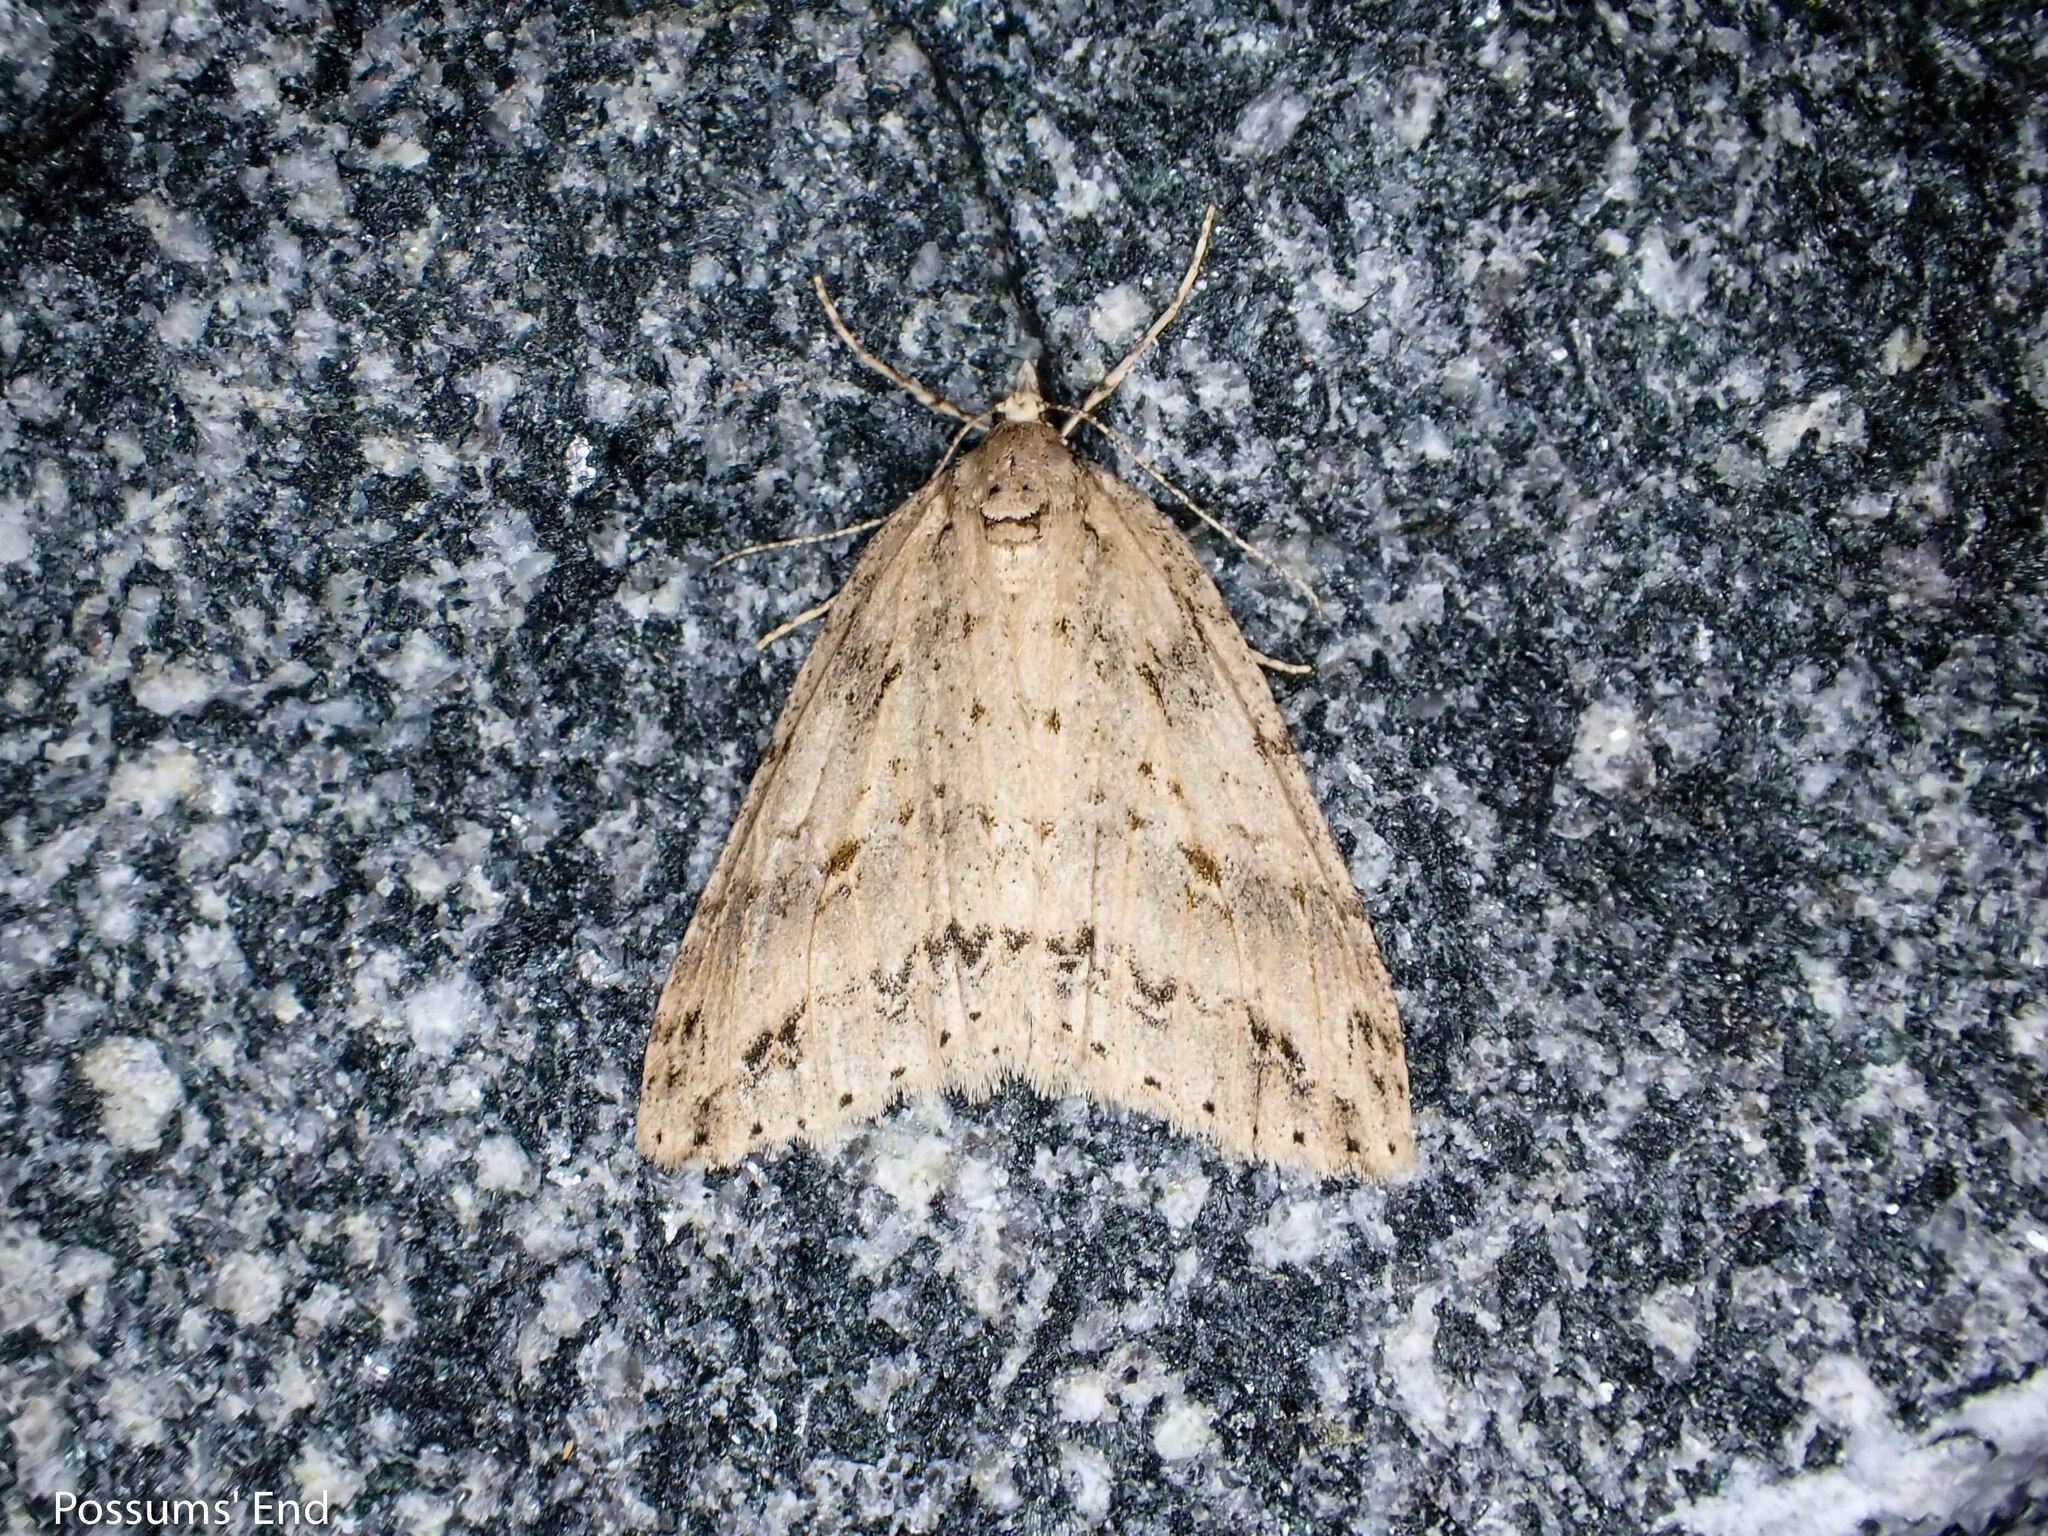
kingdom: Animalia
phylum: Arthropoda
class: Insecta
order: Lepidoptera
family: Geometridae
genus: Pseudocoremia
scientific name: Pseudocoremia rudisata
